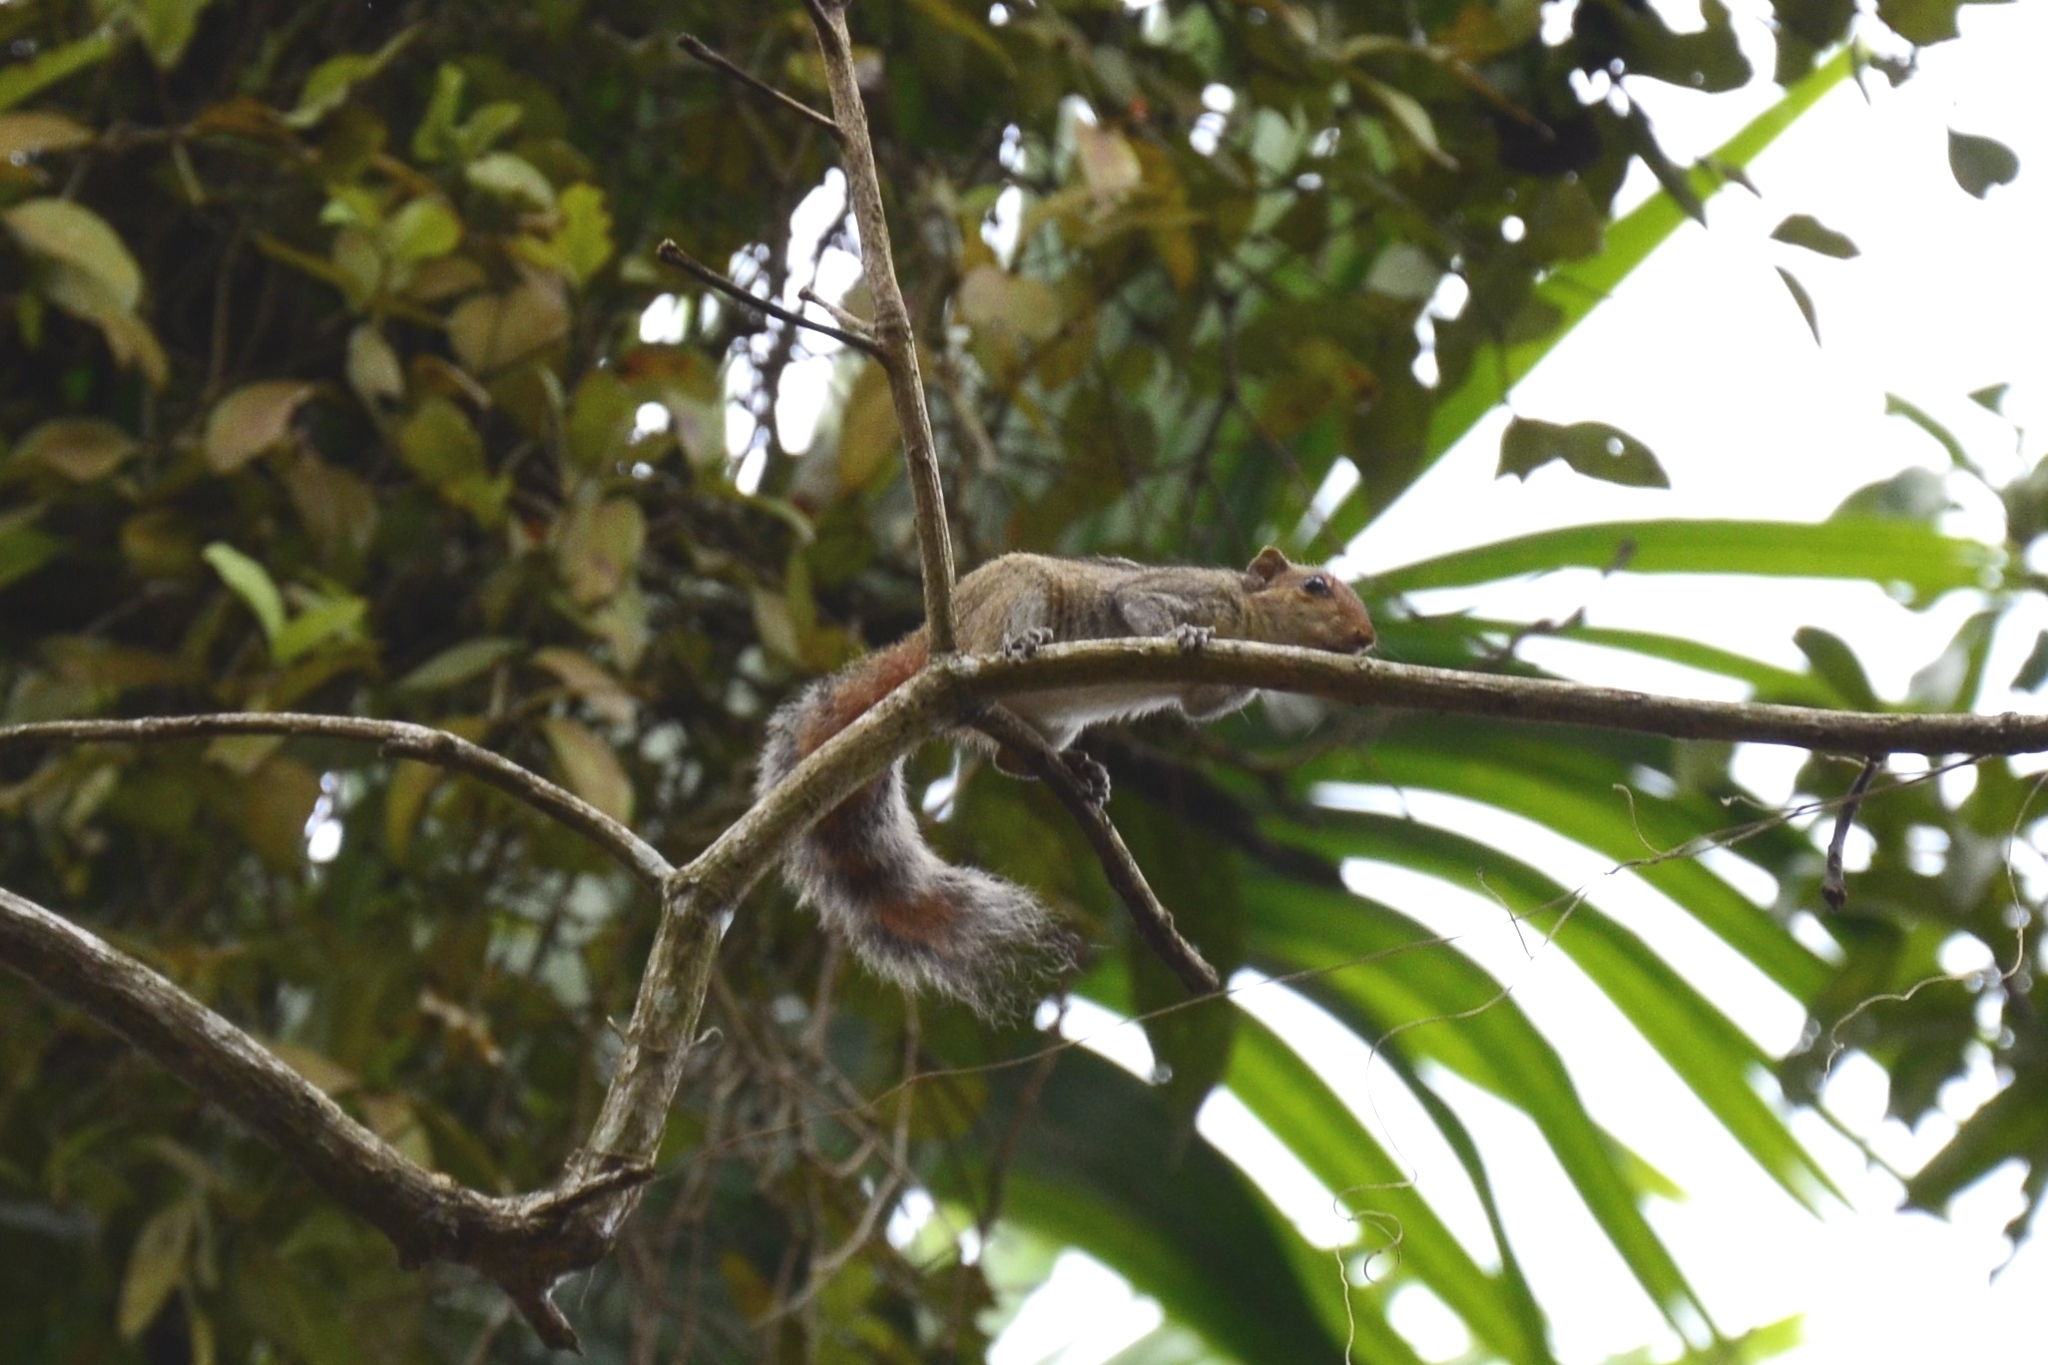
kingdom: Animalia
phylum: Chordata
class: Mammalia
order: Rodentia
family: Sciuridae
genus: Funambulus
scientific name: Funambulus tristriatus
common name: Jungle palm squirrel
